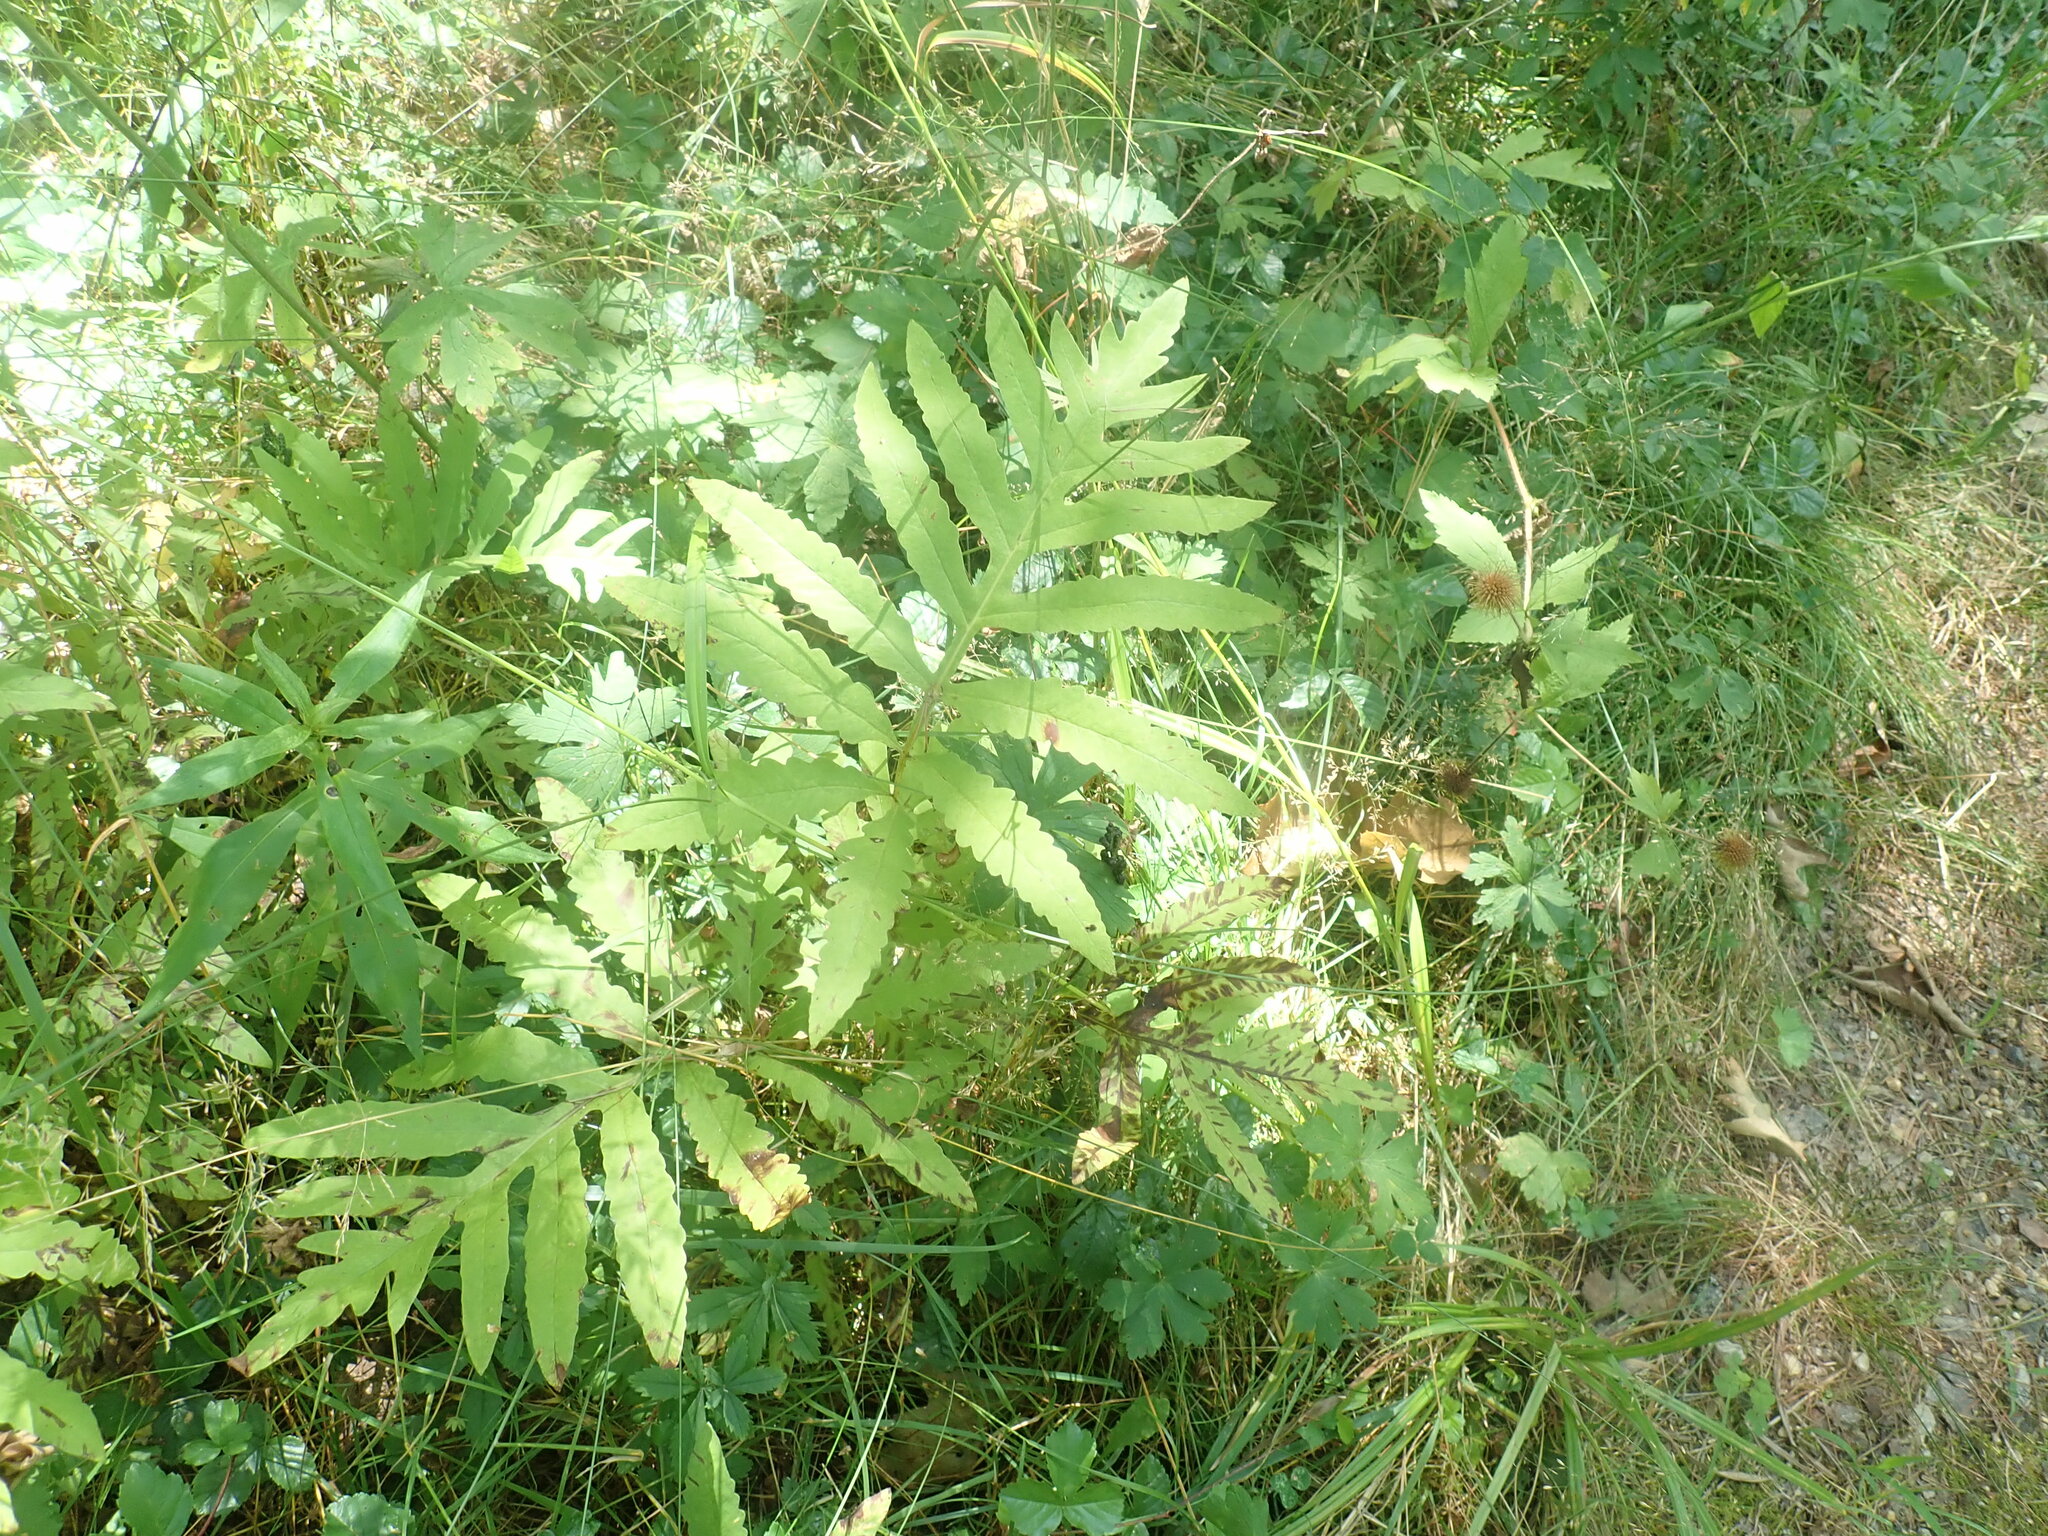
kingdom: Plantae
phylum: Tracheophyta
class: Polypodiopsida
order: Polypodiales
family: Onocleaceae
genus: Onoclea
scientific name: Onoclea sensibilis
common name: Sensitive fern
